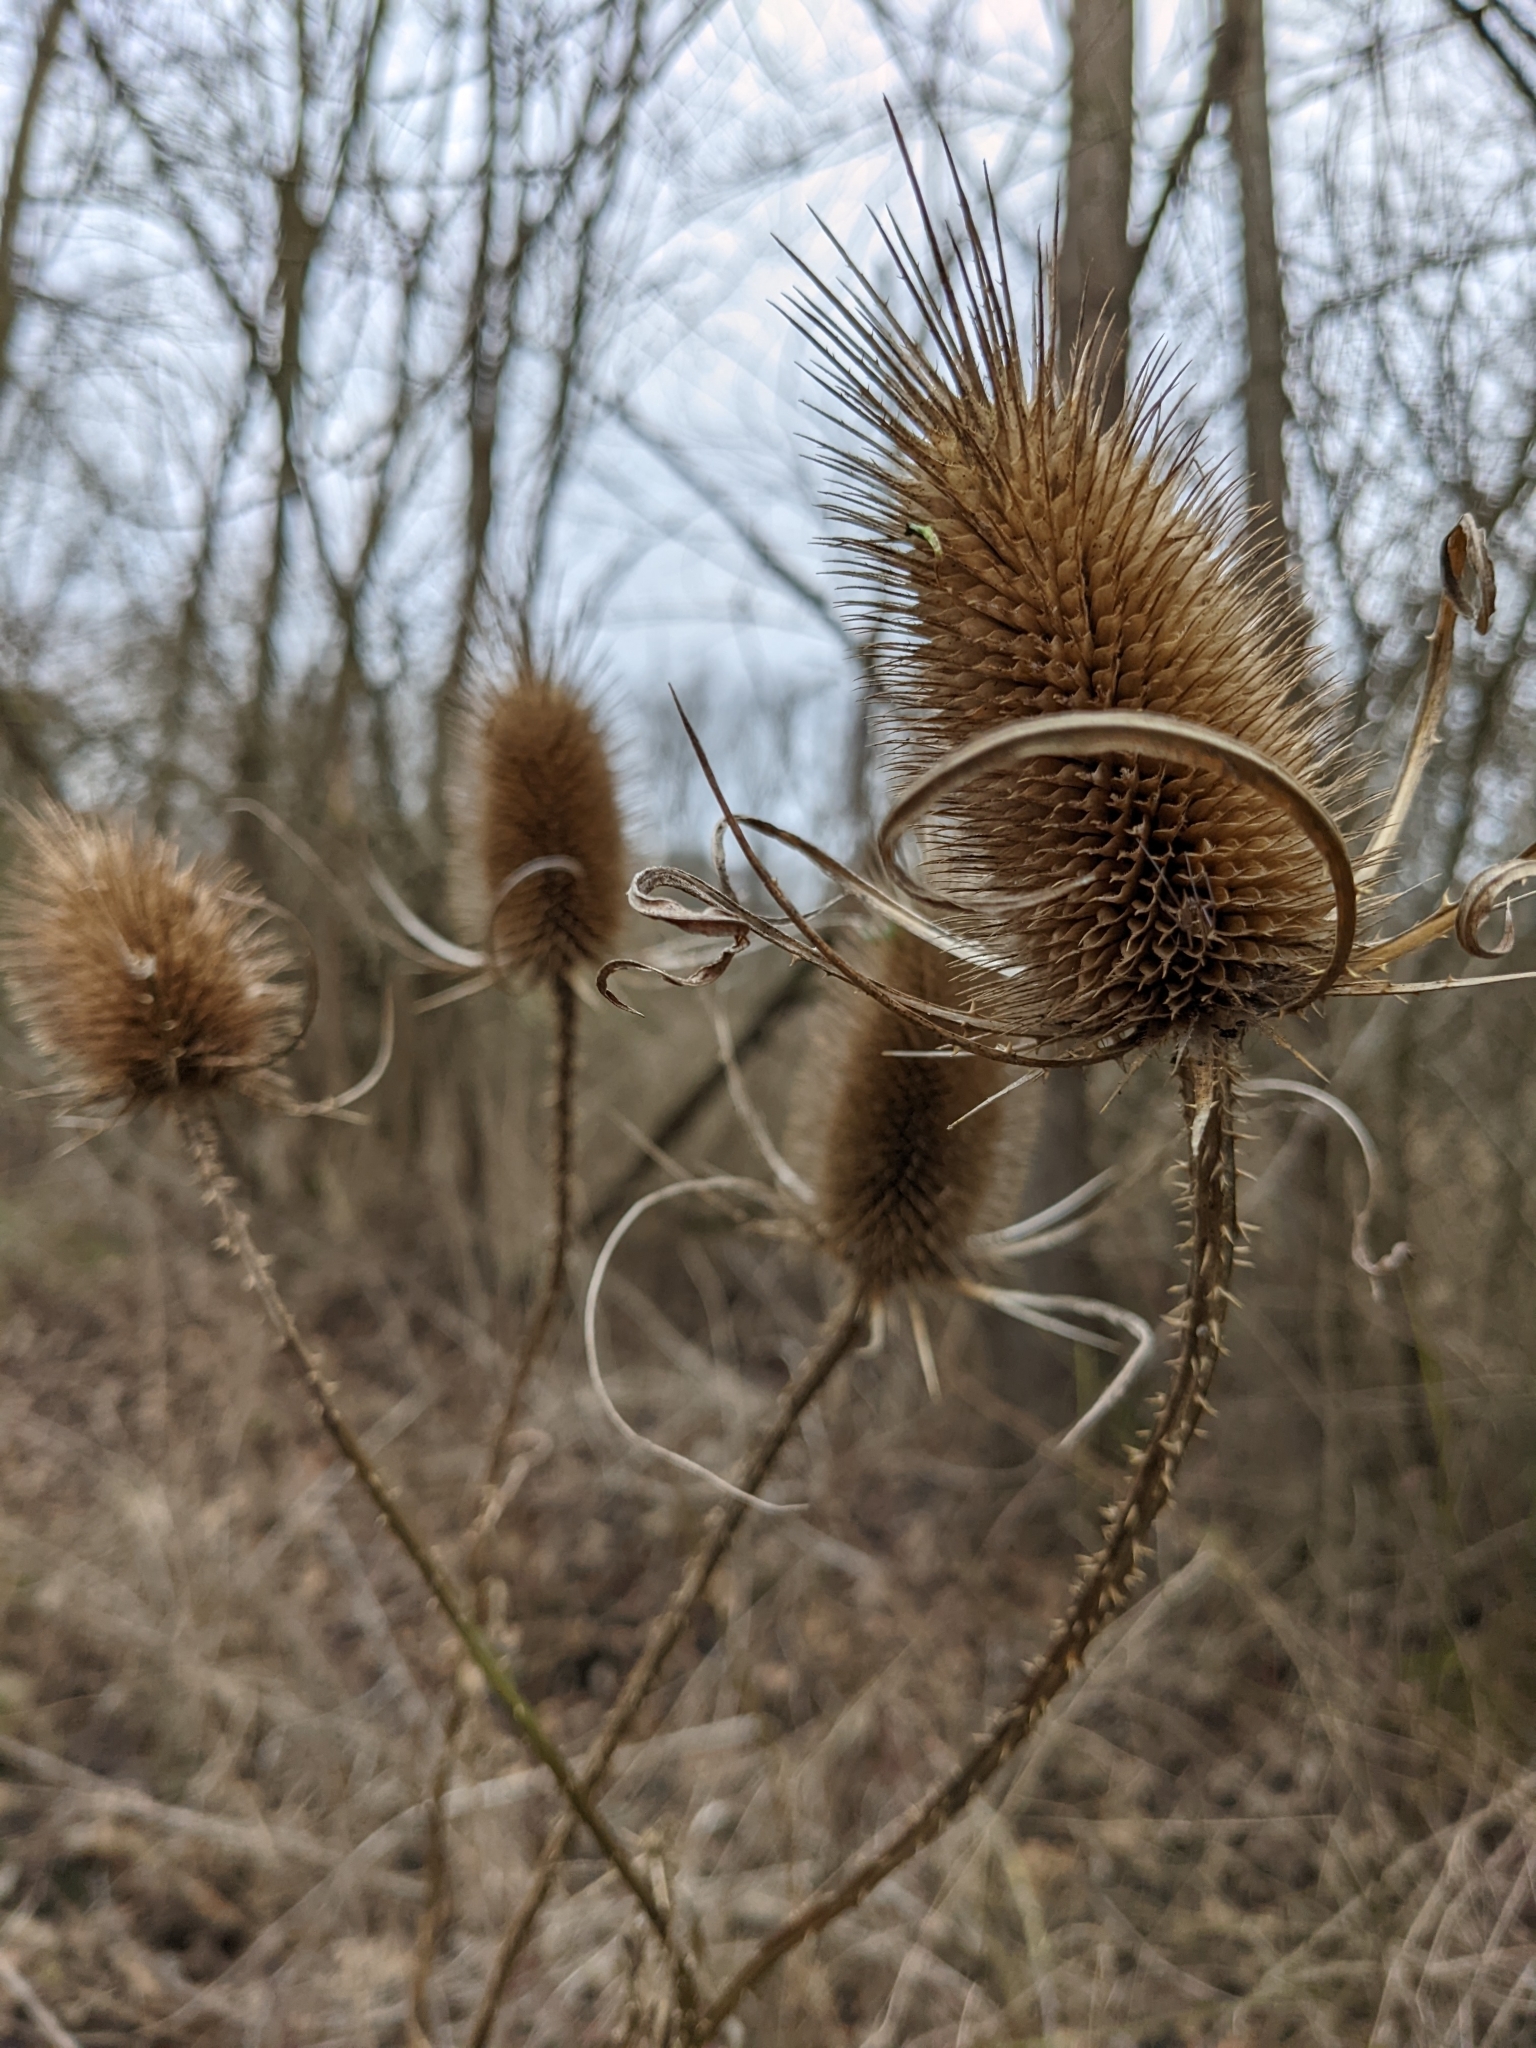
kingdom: Plantae
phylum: Tracheophyta
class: Magnoliopsida
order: Dipsacales
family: Caprifoliaceae
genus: Dipsacus
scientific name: Dipsacus fullonum
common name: Teasel
